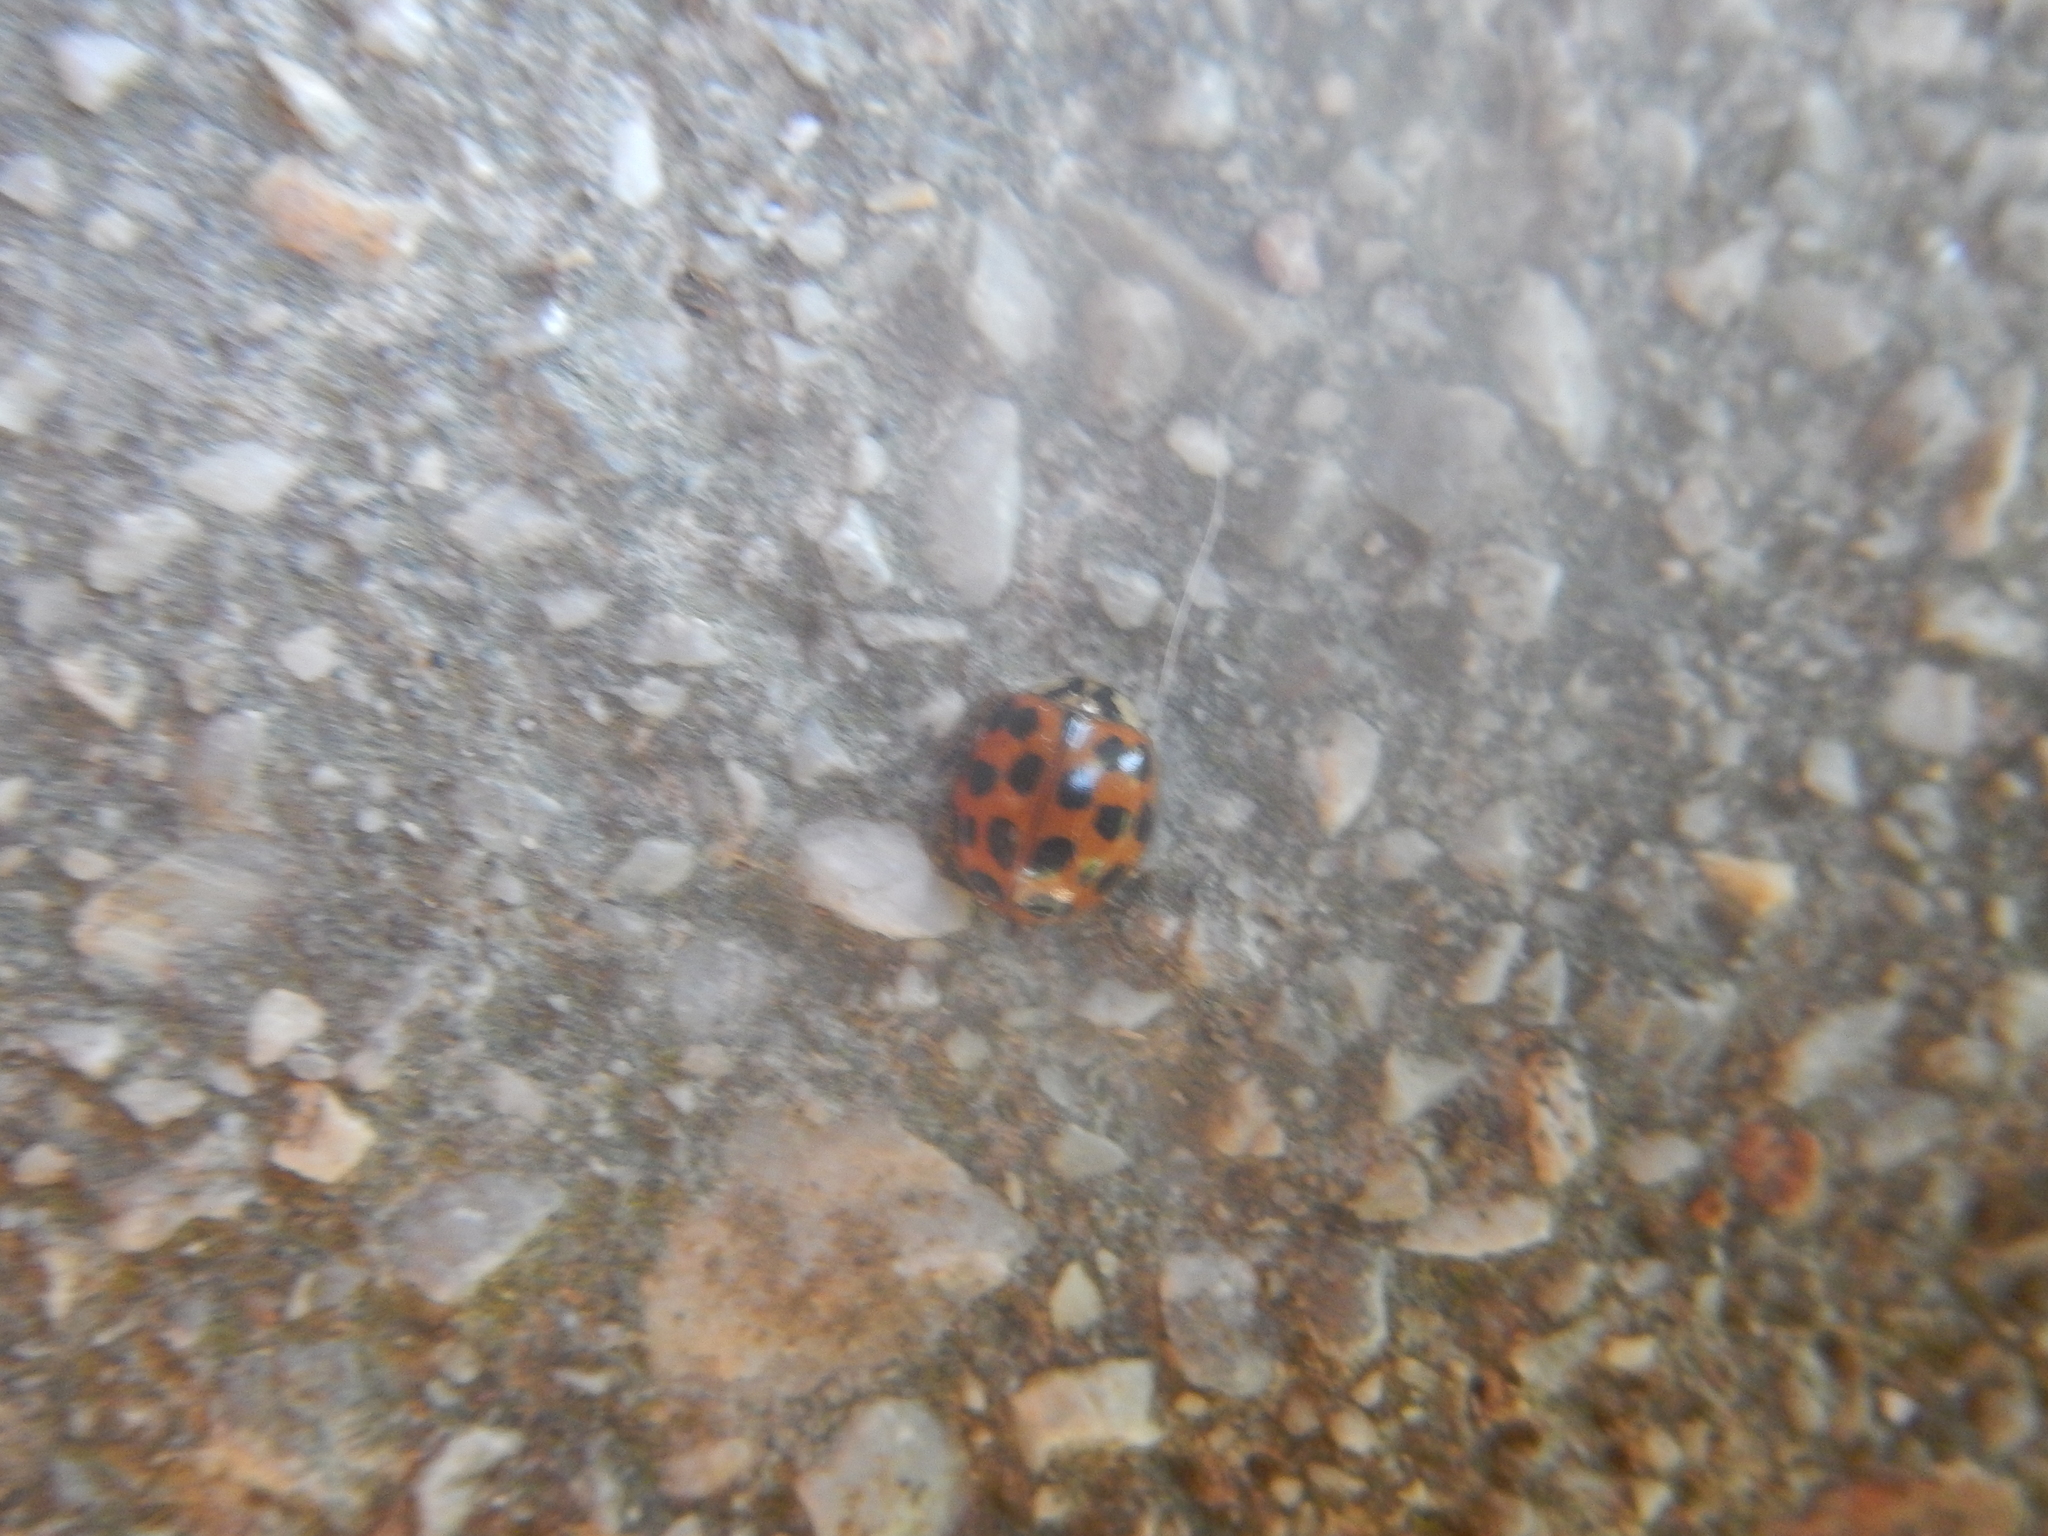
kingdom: Animalia
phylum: Arthropoda
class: Insecta
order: Coleoptera
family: Coccinellidae
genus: Harmonia
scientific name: Harmonia axyridis
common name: Harlequin ladybird
